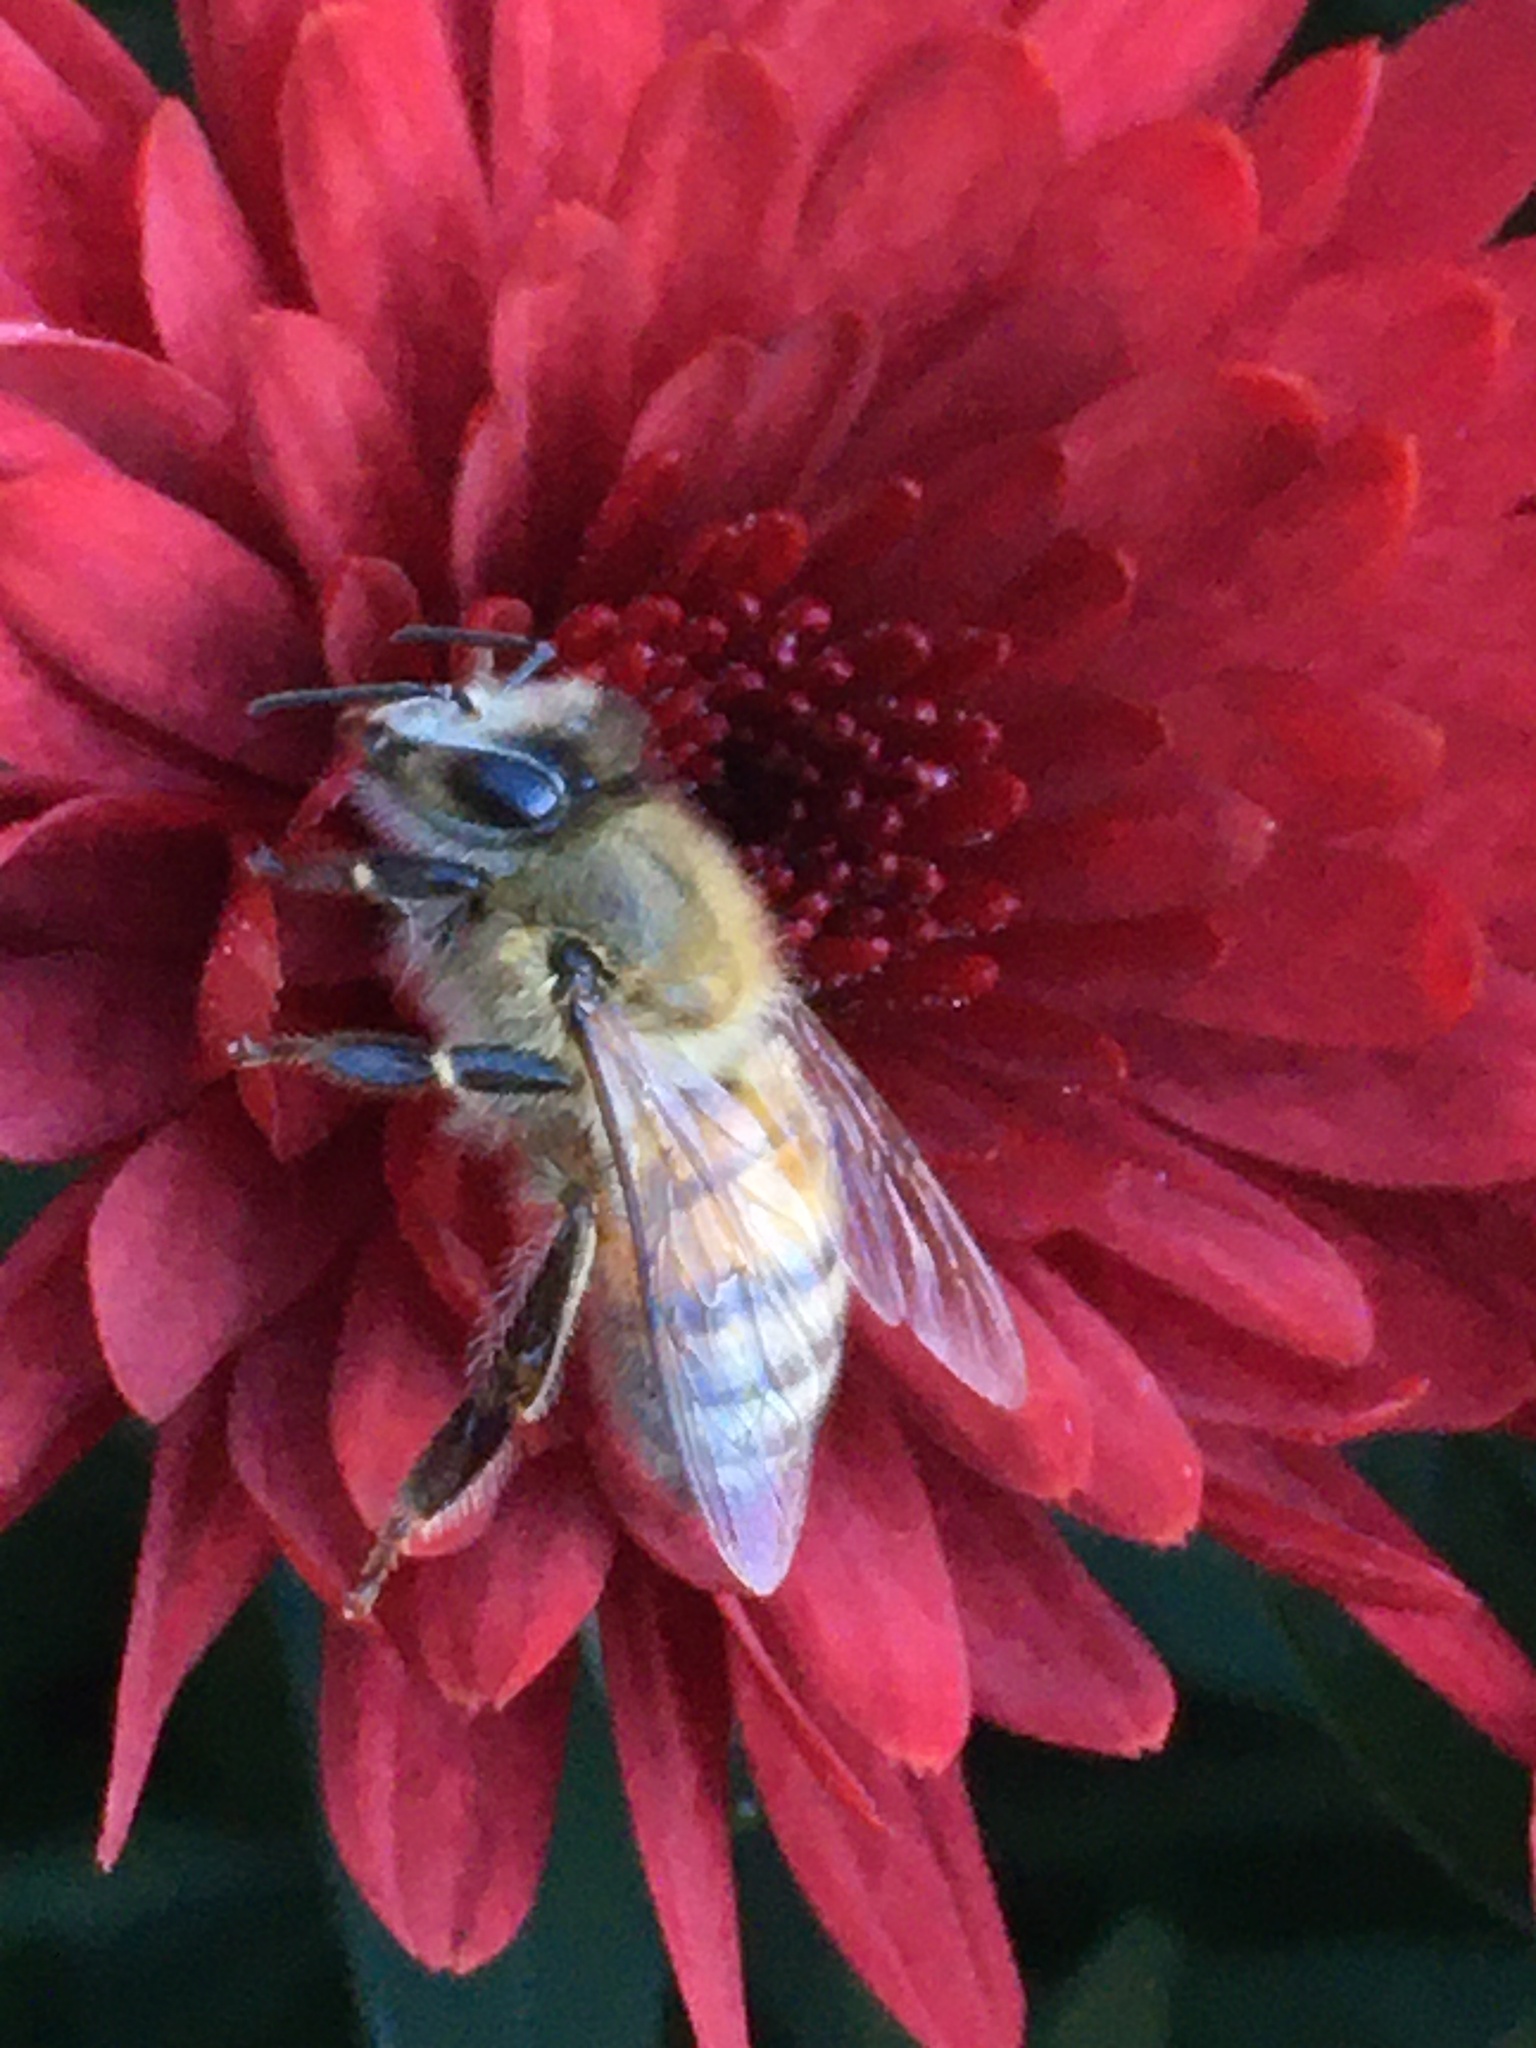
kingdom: Animalia
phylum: Arthropoda
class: Insecta
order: Hymenoptera
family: Apidae
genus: Apis
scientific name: Apis mellifera
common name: Honey bee
